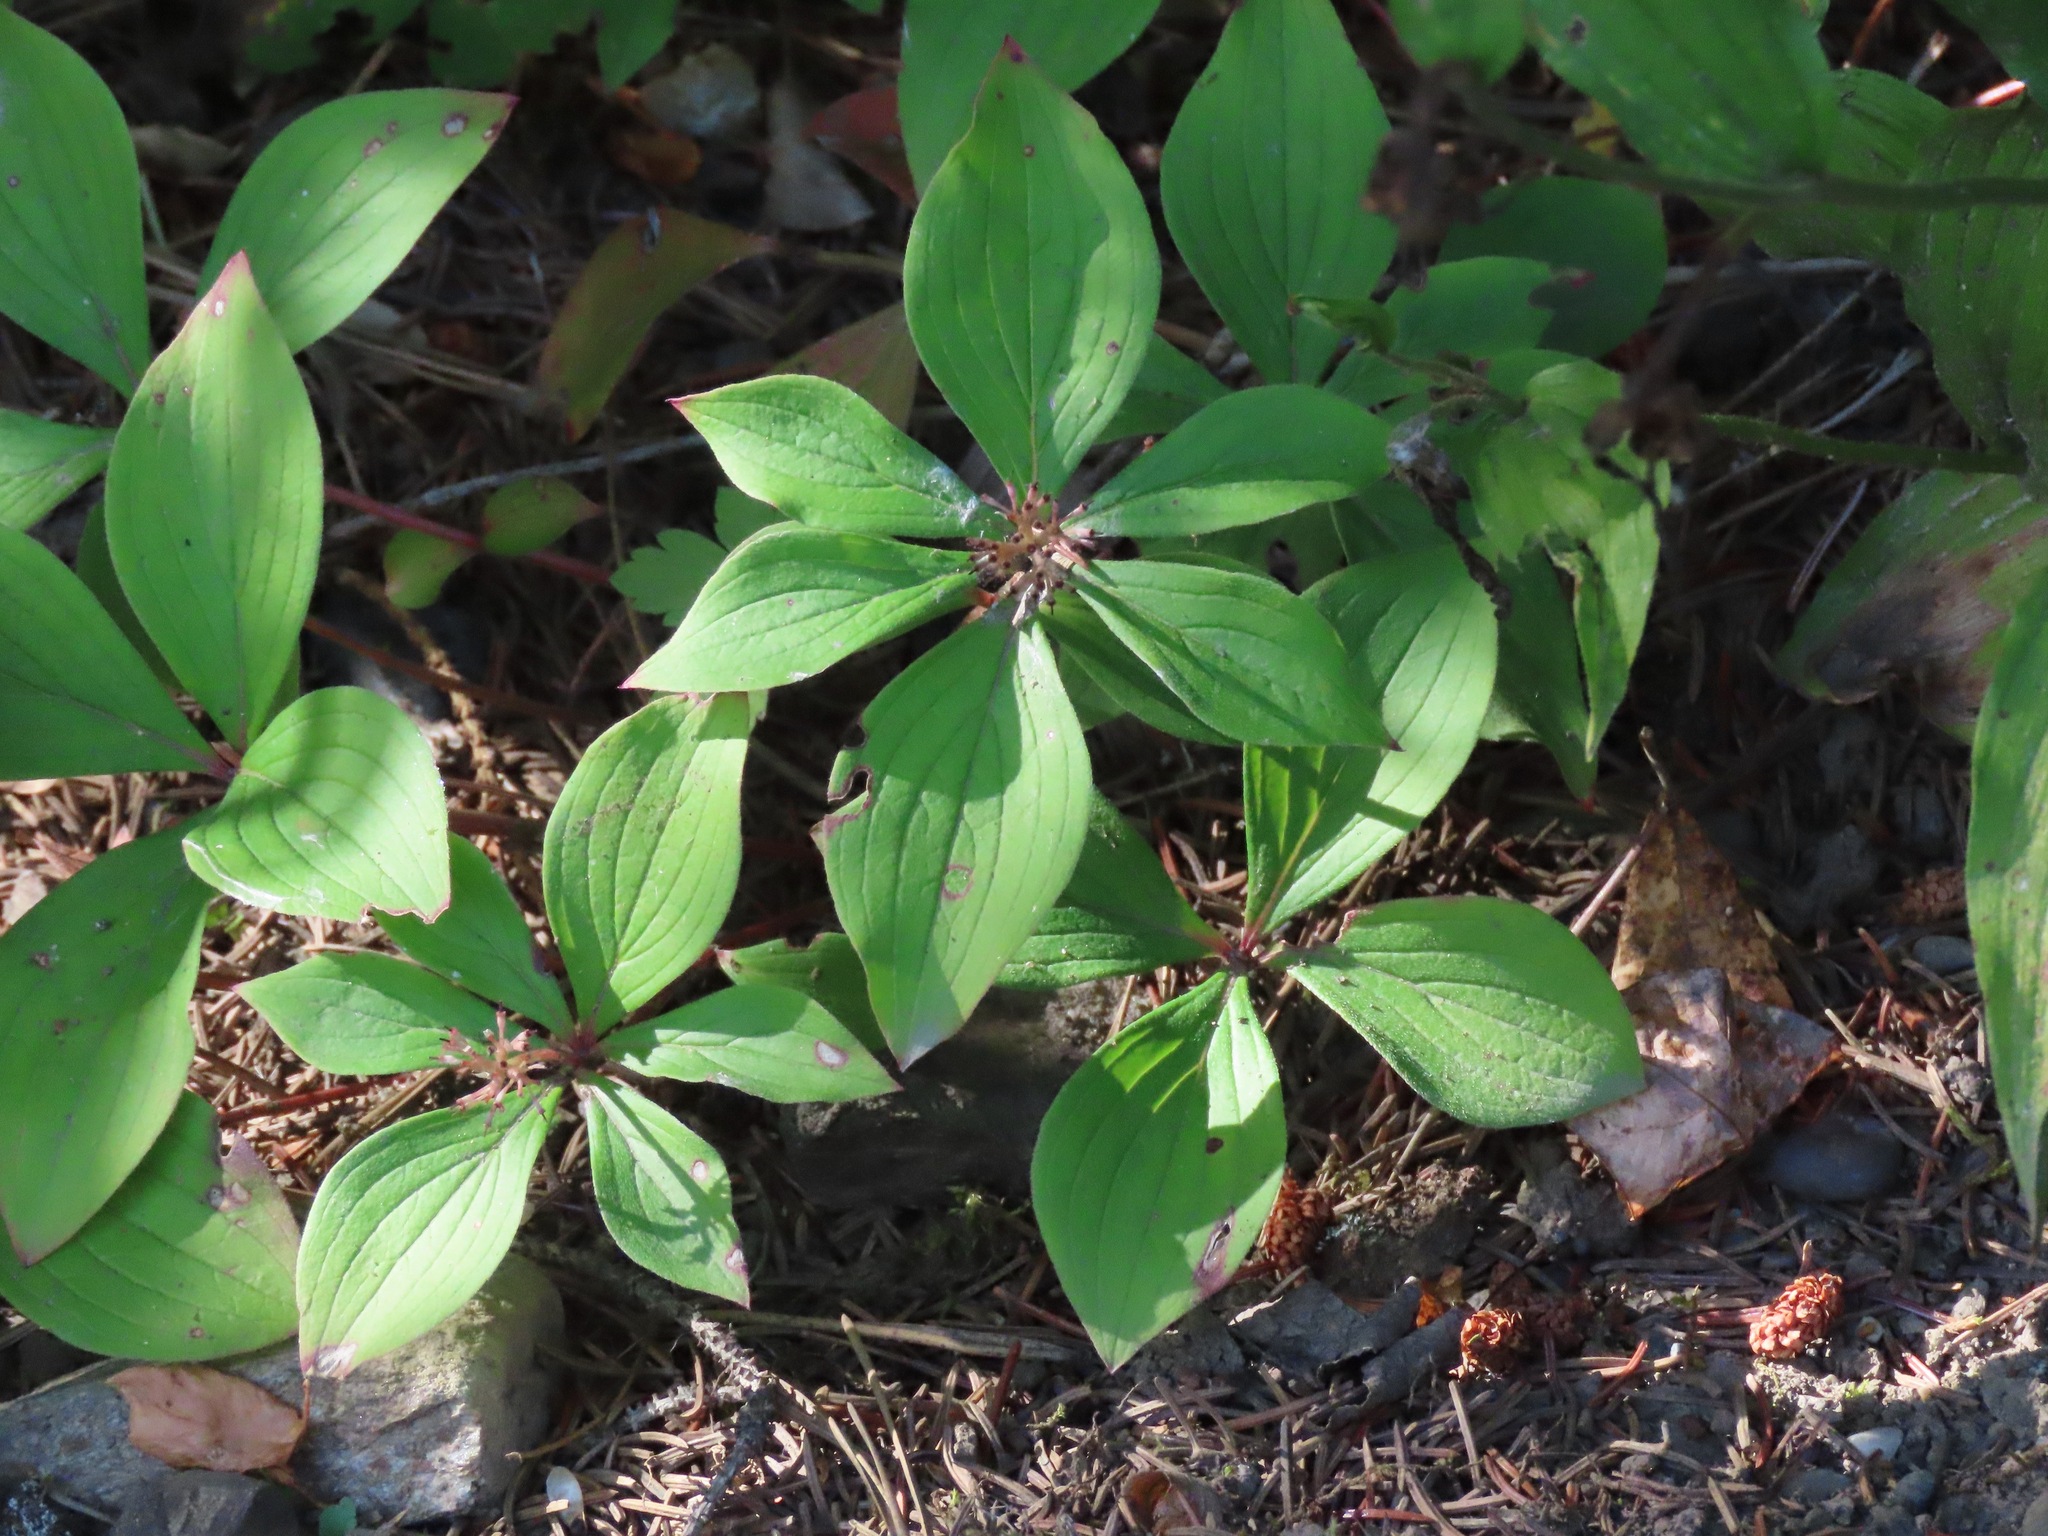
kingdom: Plantae
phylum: Tracheophyta
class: Magnoliopsida
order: Cornales
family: Cornaceae
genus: Cornus
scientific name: Cornus canadensis
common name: Creeping dogwood
